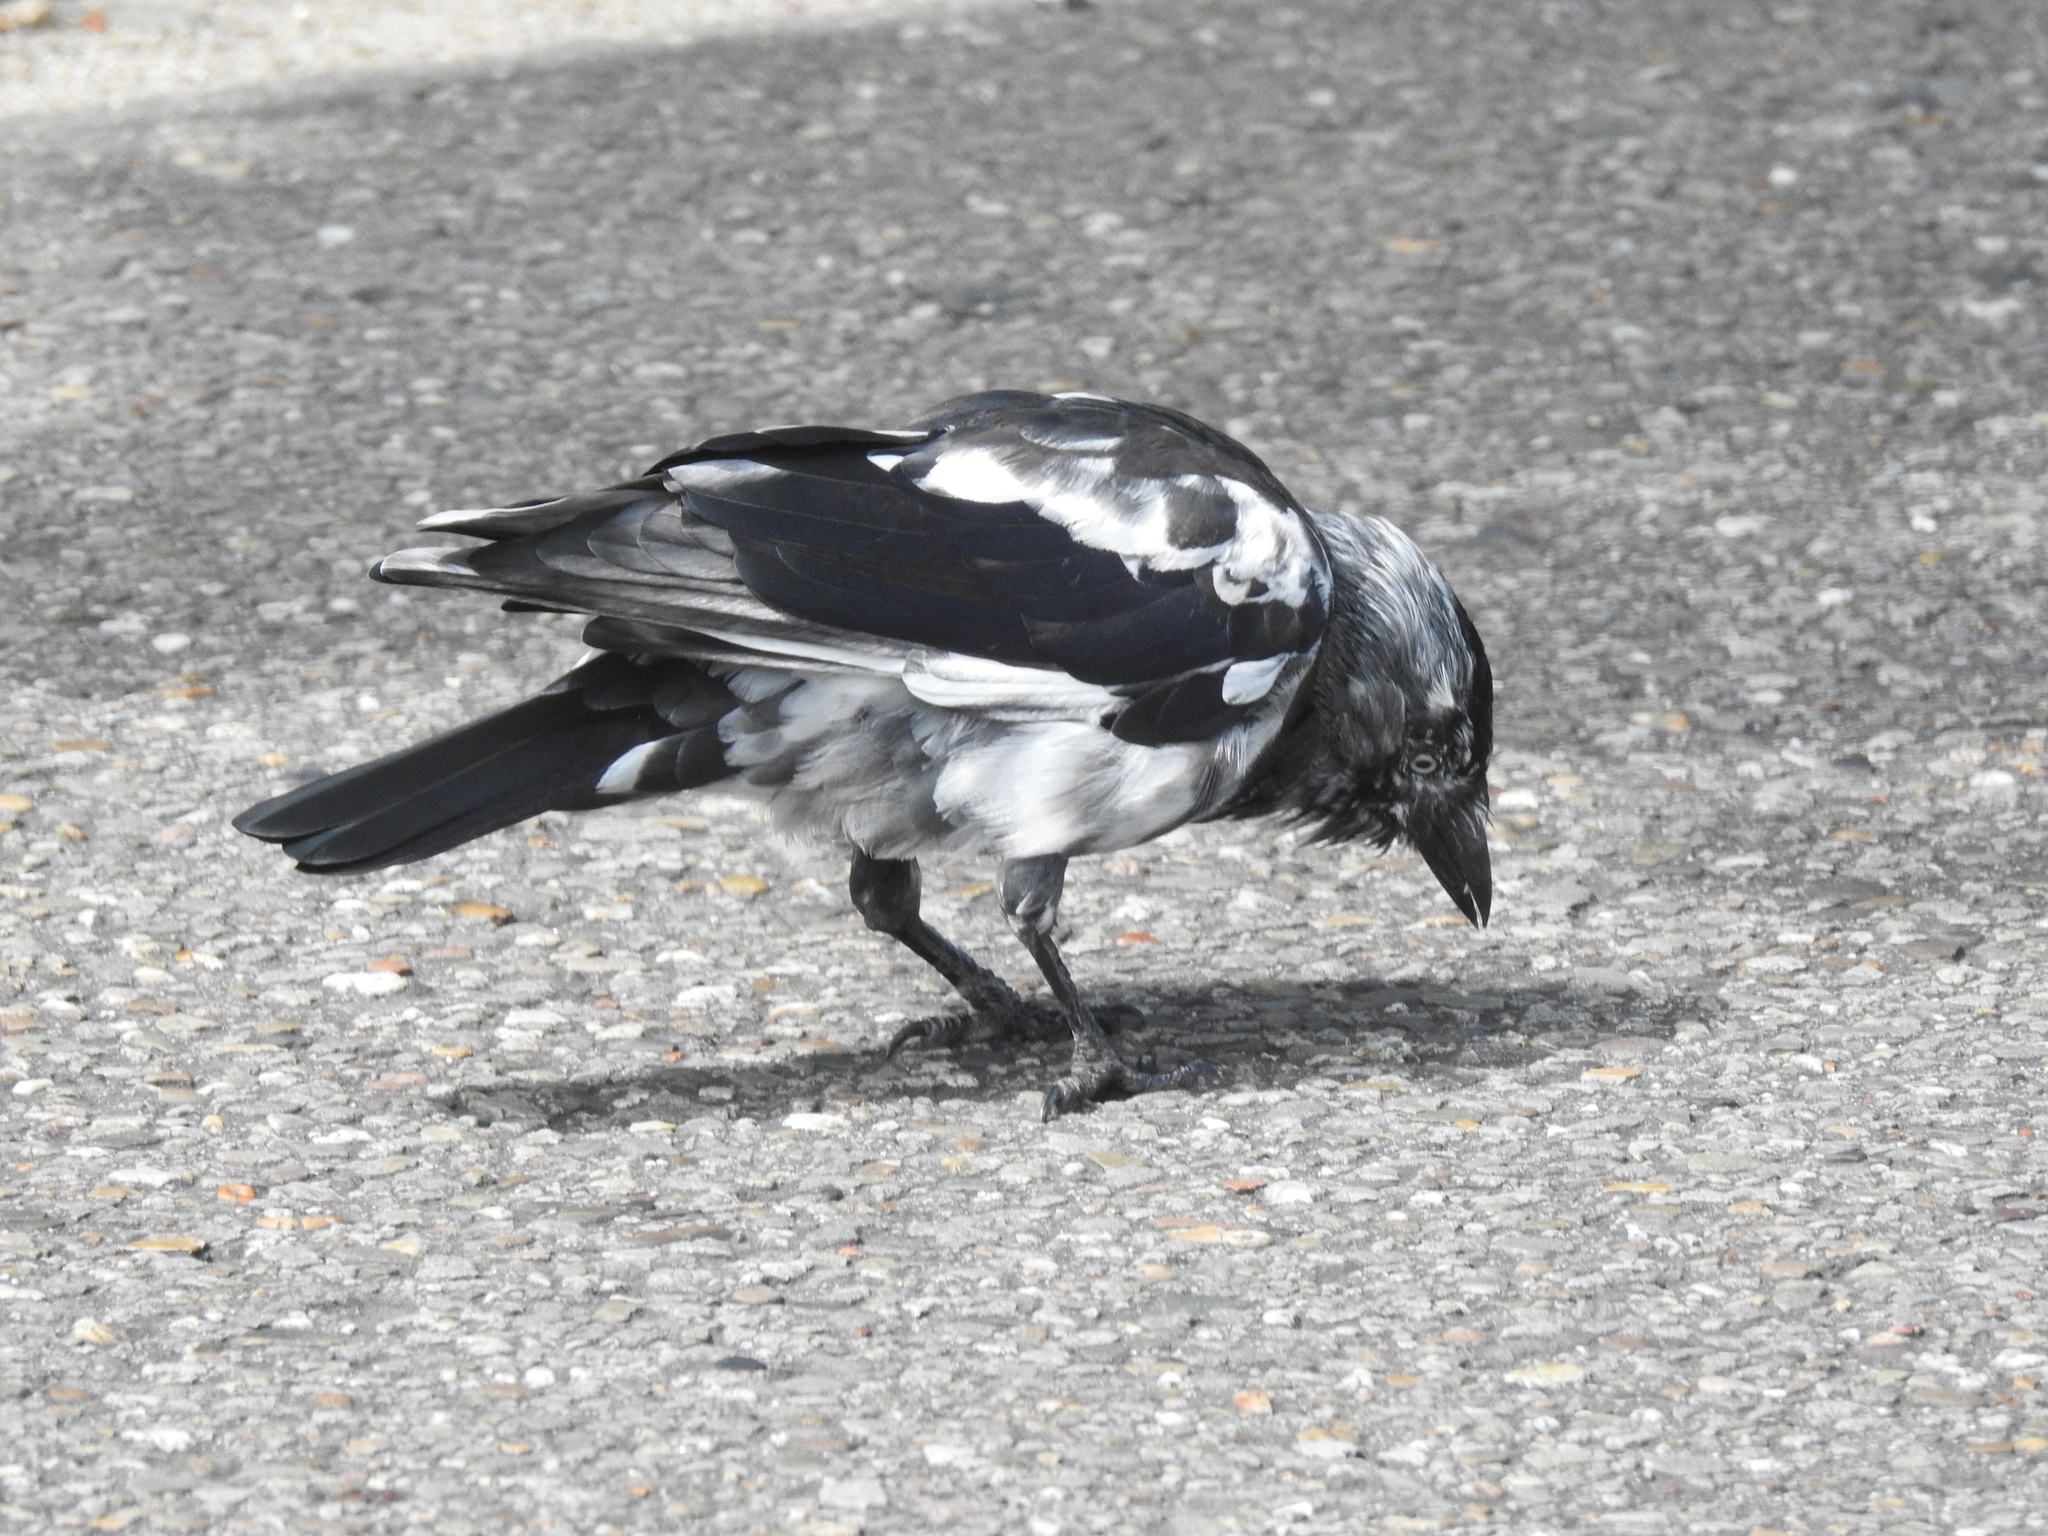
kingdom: Animalia
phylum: Chordata
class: Aves
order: Passeriformes
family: Corvidae
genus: Coloeus
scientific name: Coloeus monedula
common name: Western jackdaw
